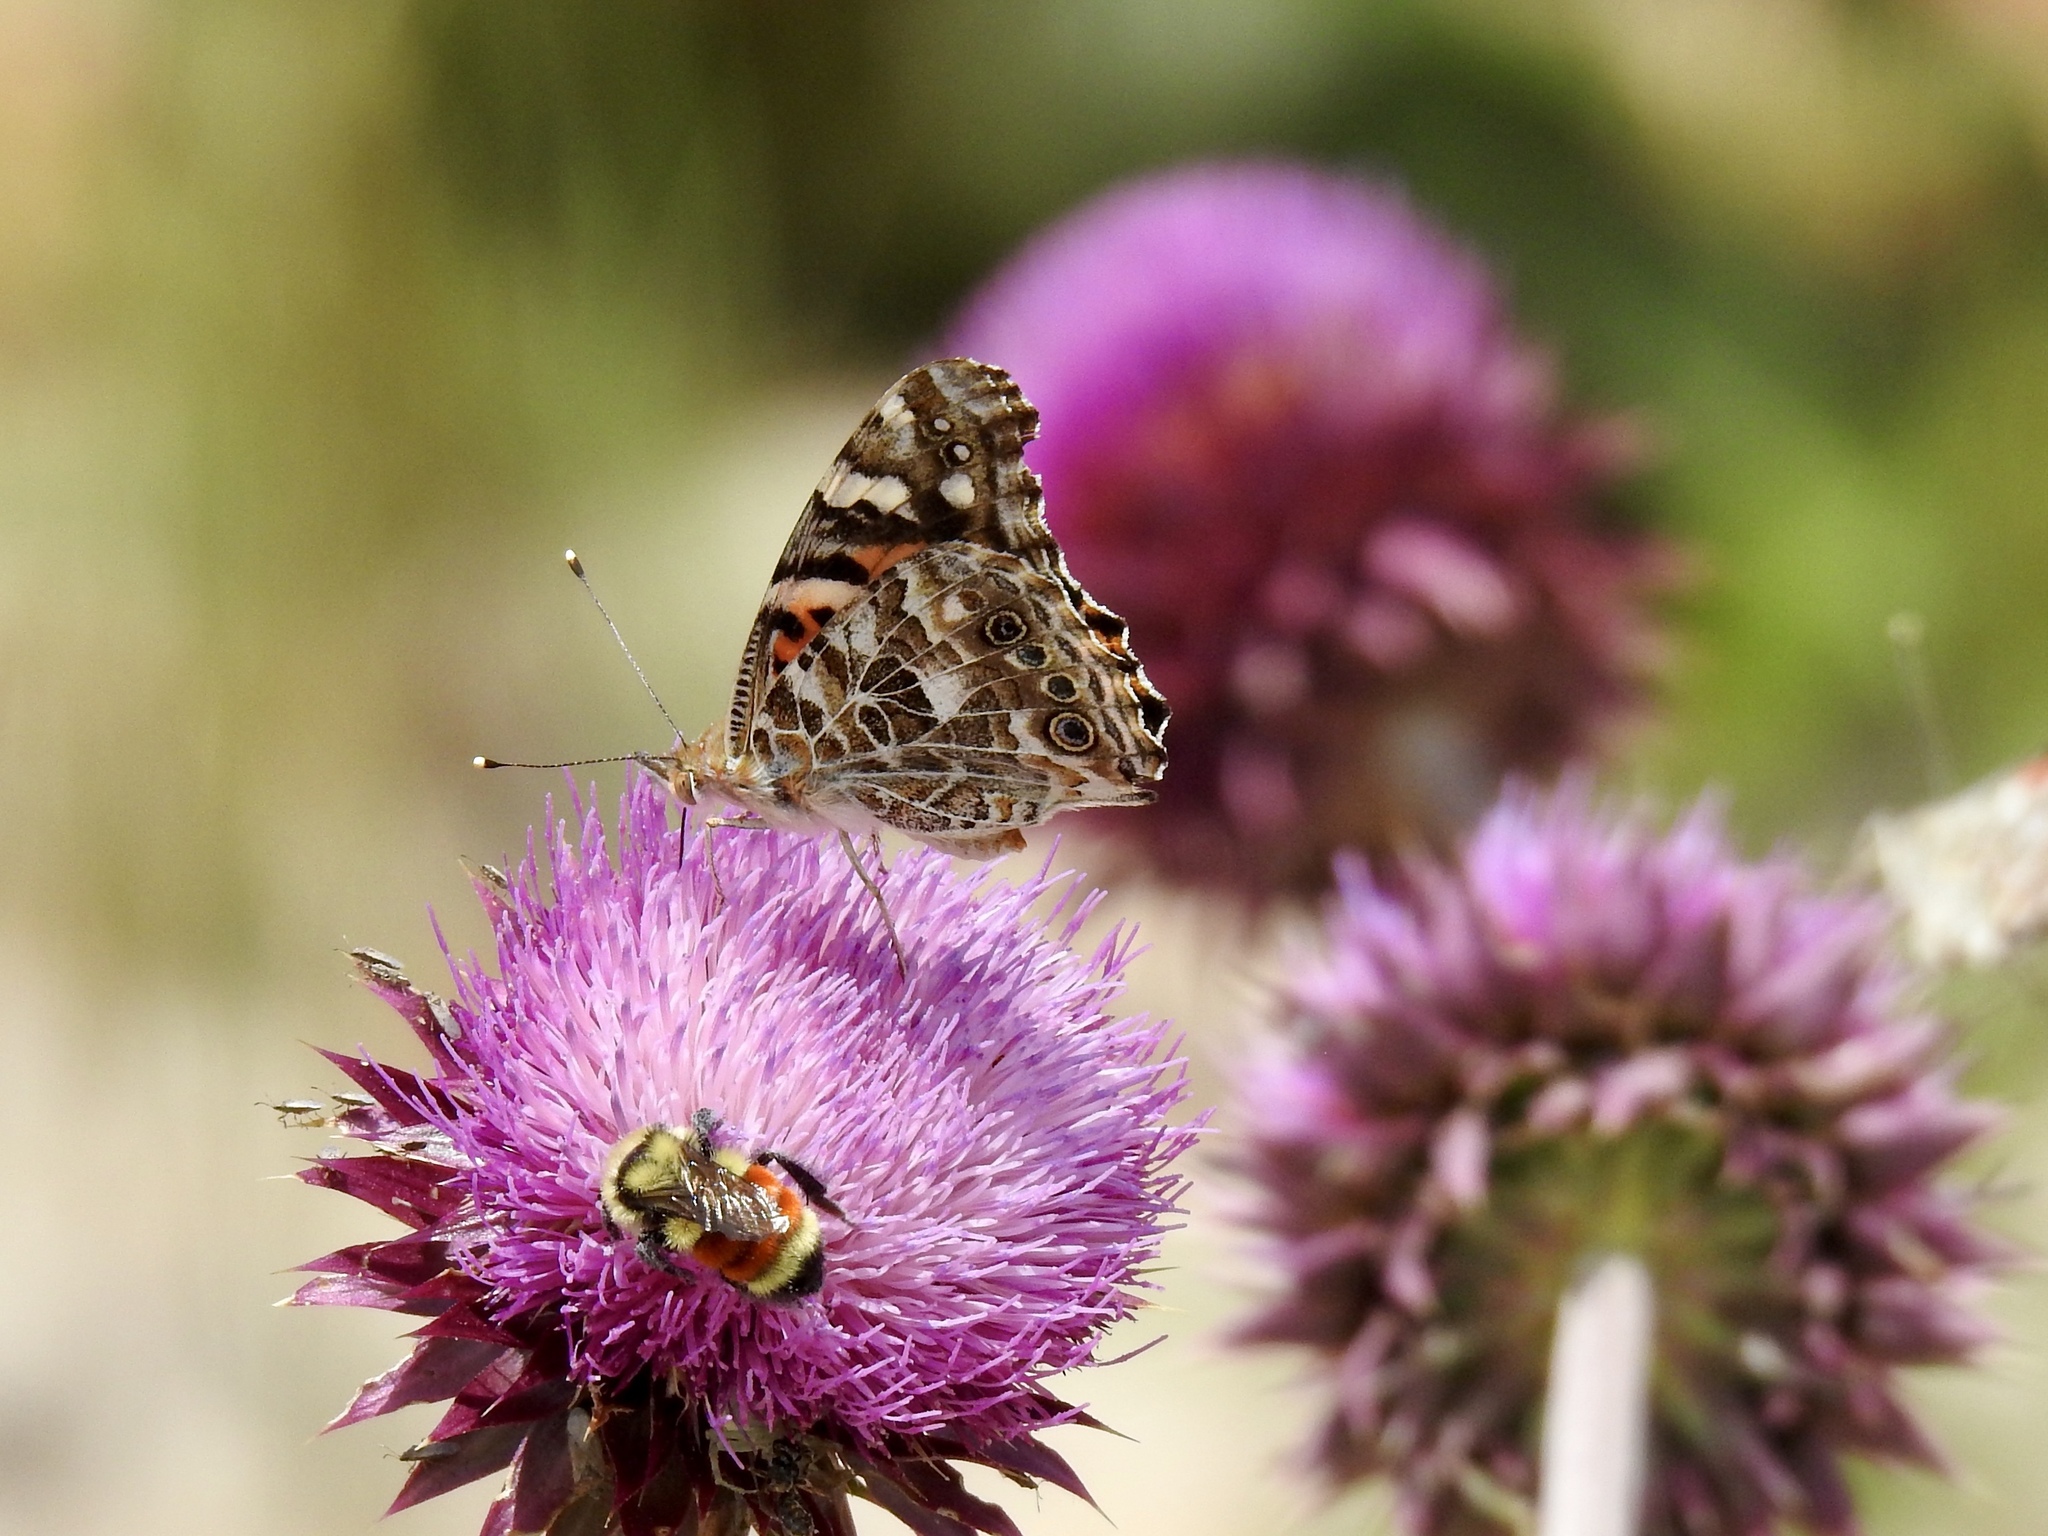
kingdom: Animalia
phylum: Arthropoda
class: Insecta
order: Hymenoptera
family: Apidae
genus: Bombus
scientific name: Bombus huntii
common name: Hunt bumble bee
